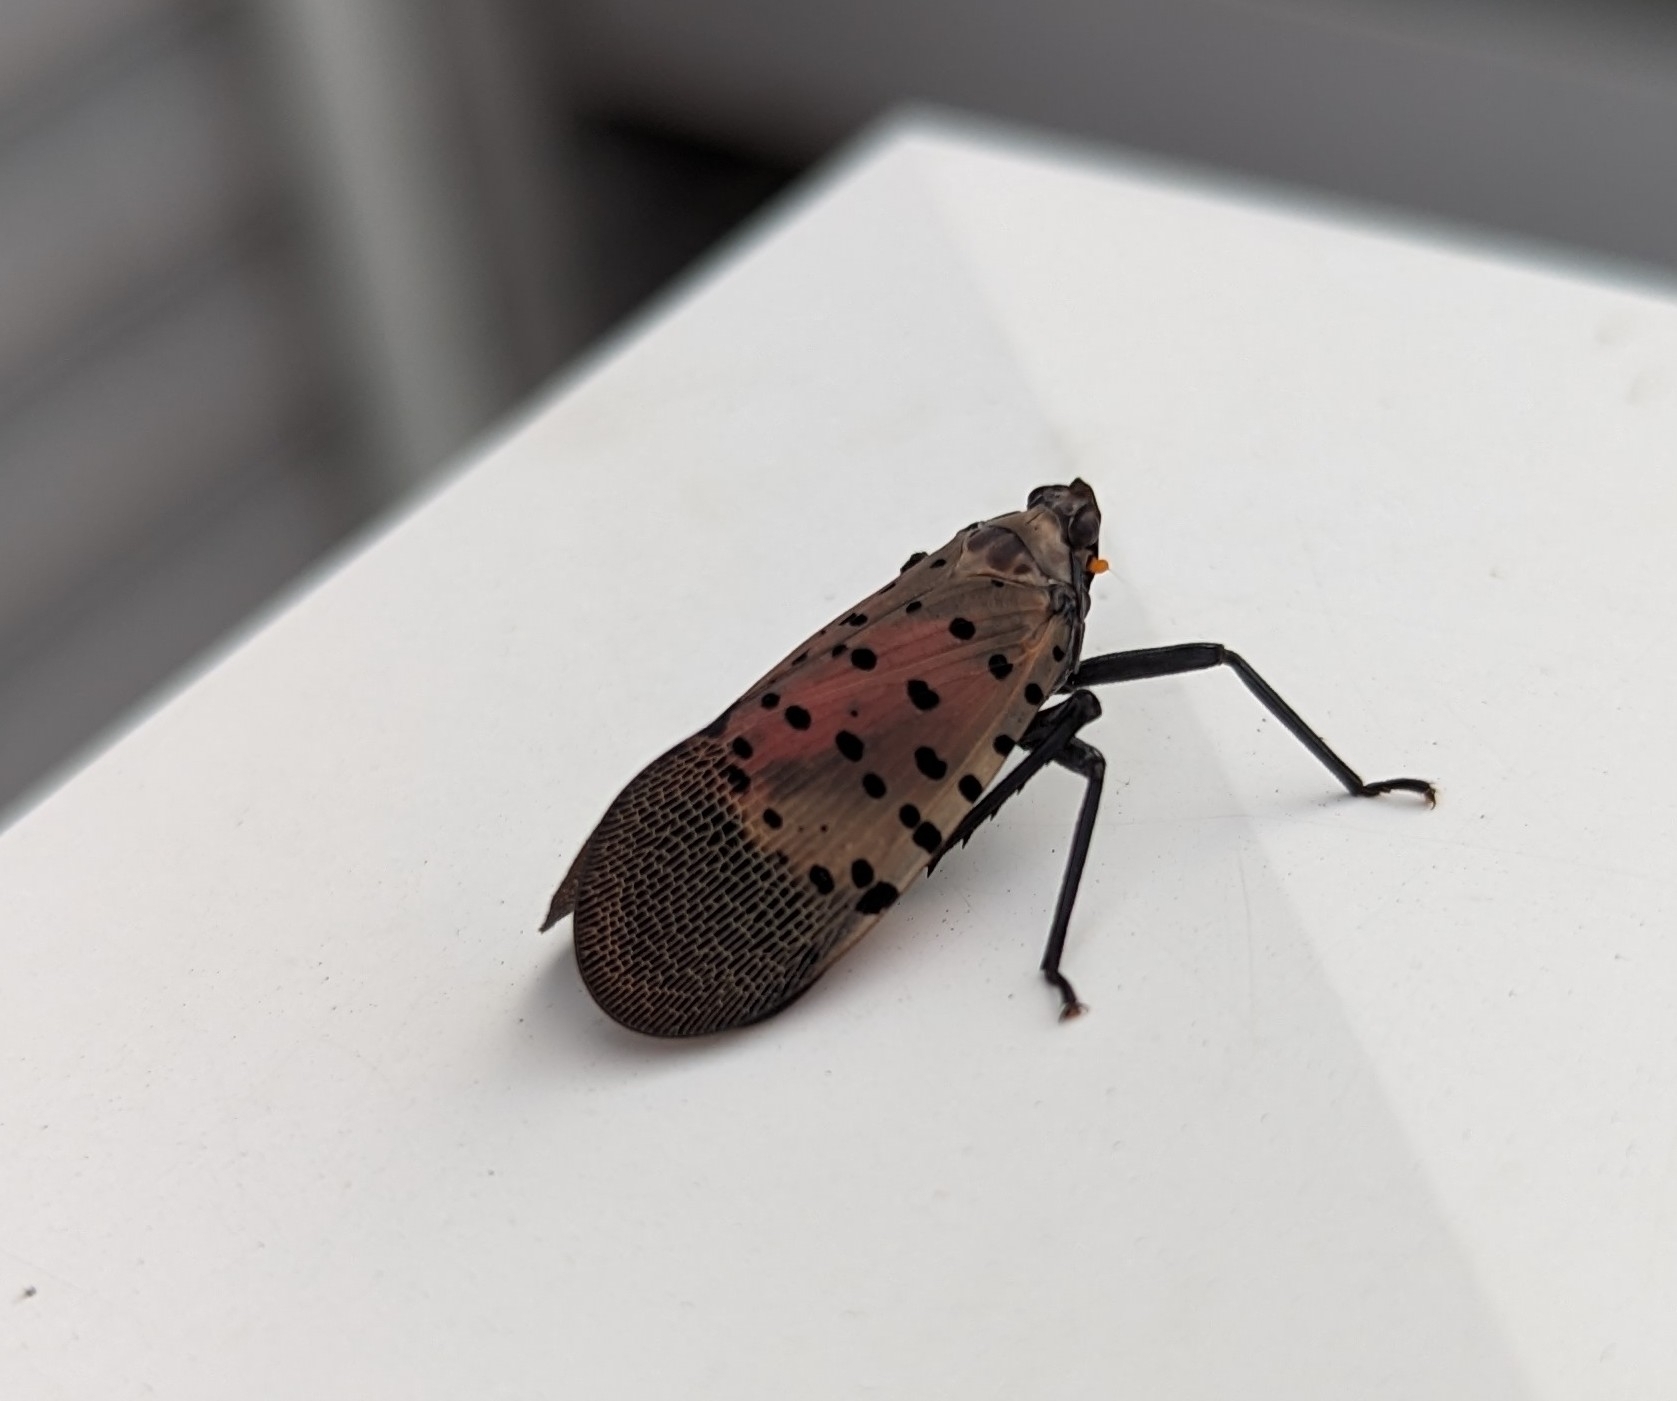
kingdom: Animalia
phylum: Arthropoda
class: Insecta
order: Hemiptera
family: Fulgoridae
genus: Lycorma
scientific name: Lycorma delicatula
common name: Spotted lanternfly
